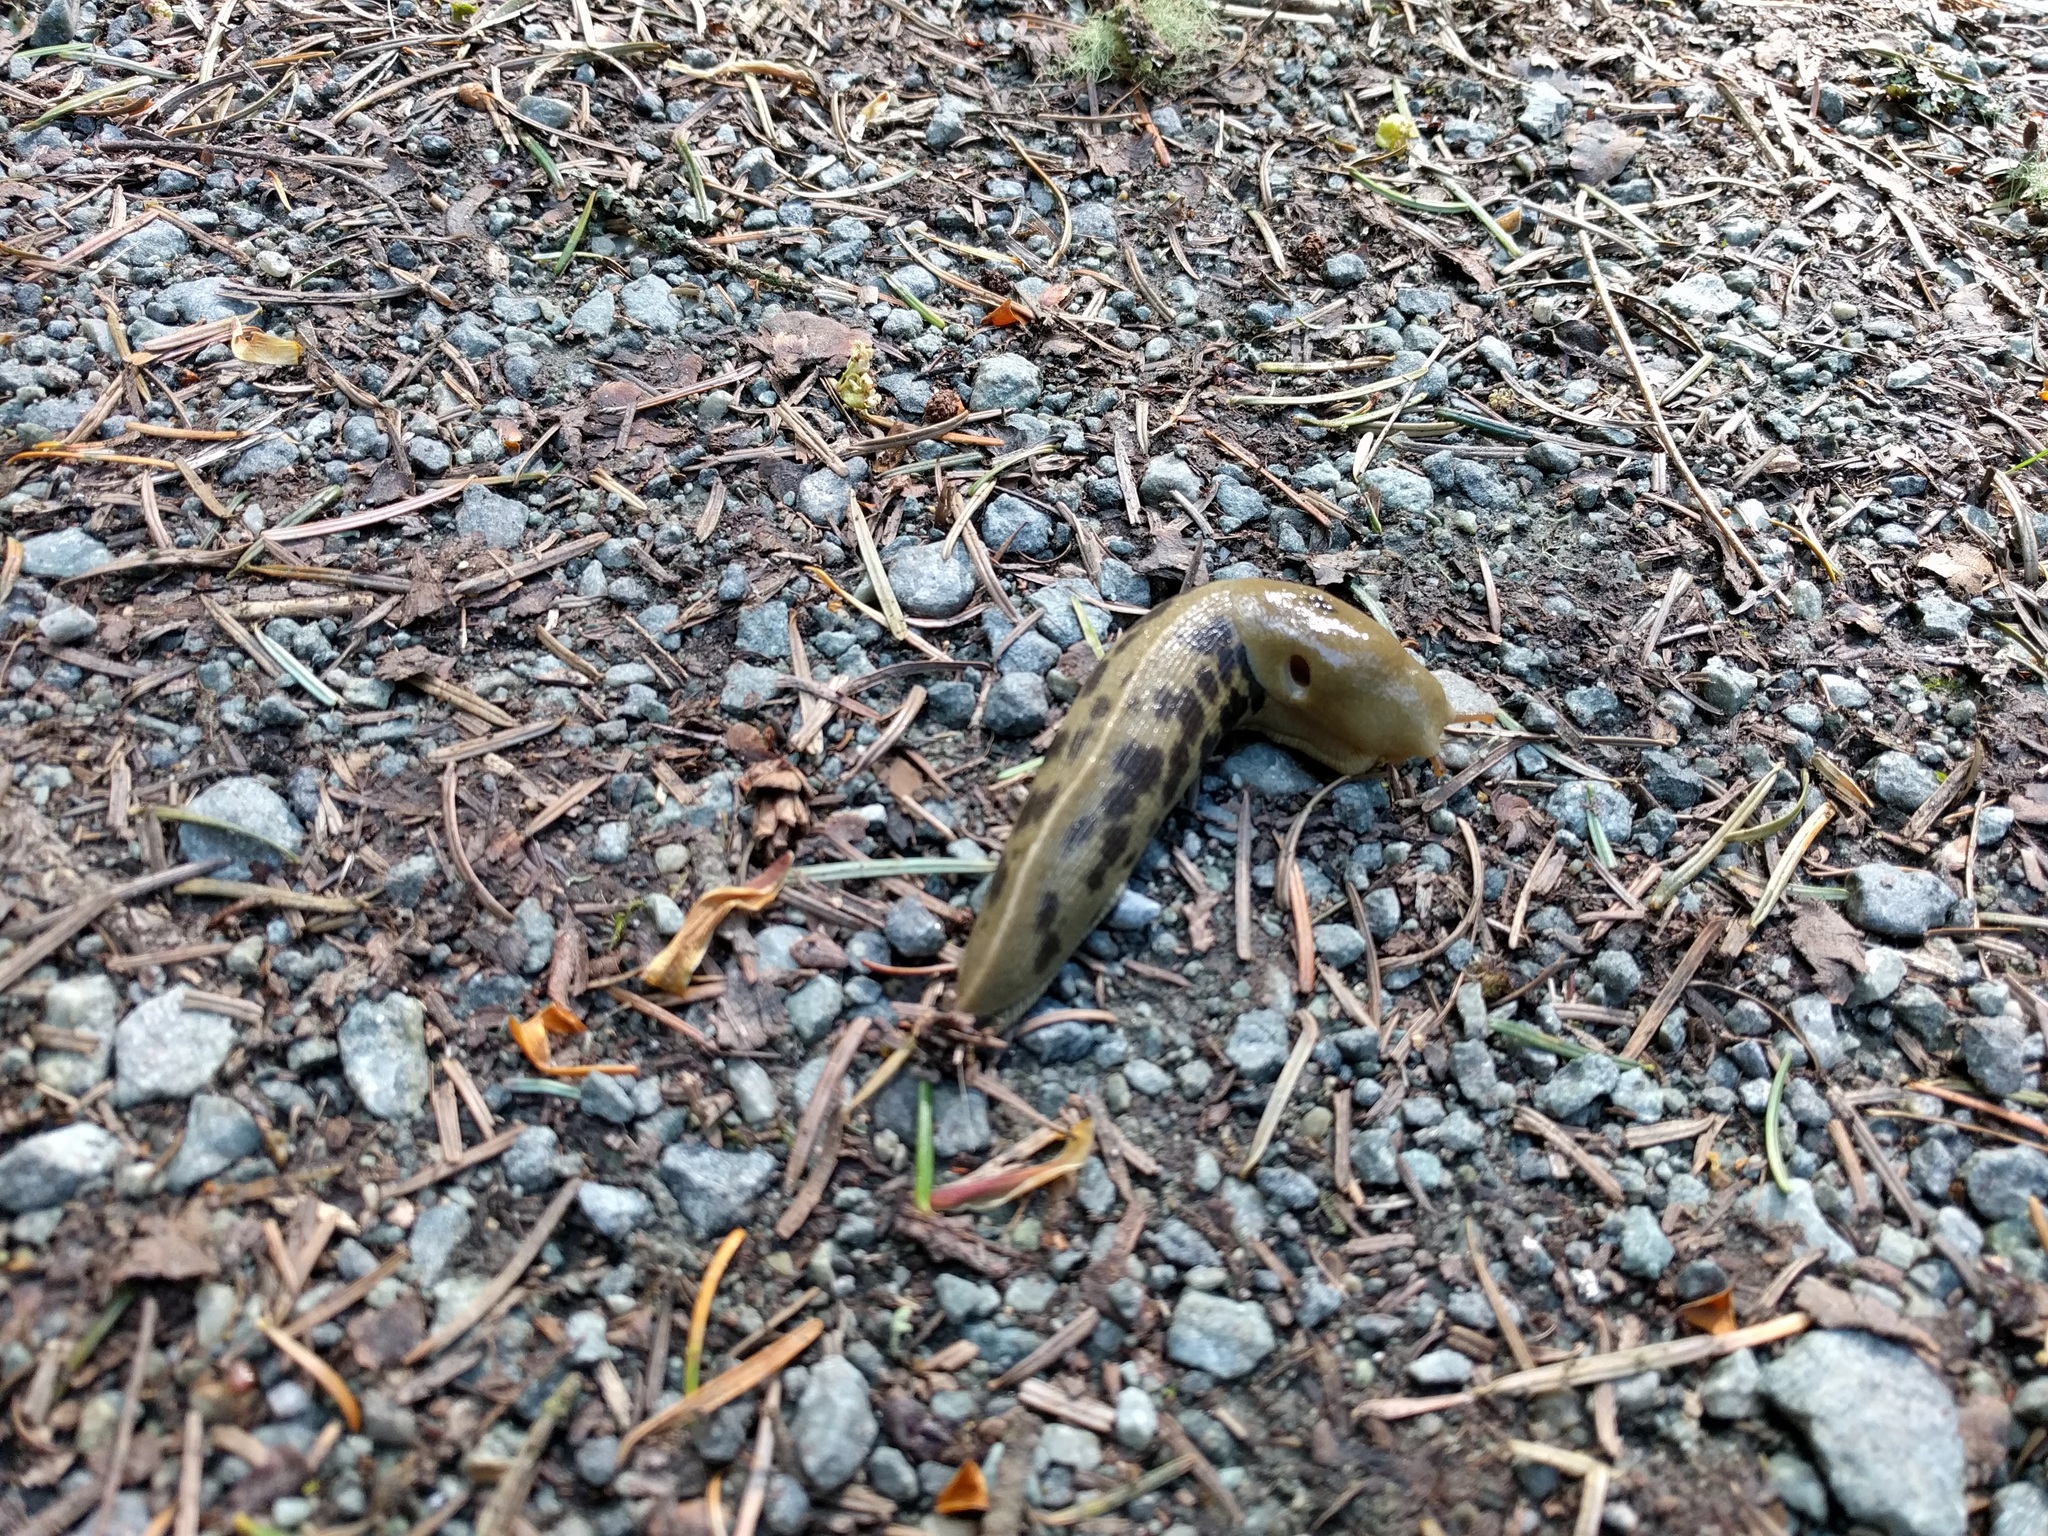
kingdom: Animalia
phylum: Mollusca
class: Gastropoda
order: Stylommatophora
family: Ariolimacidae
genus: Ariolimax
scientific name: Ariolimax columbianus
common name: Pacific banana slug
